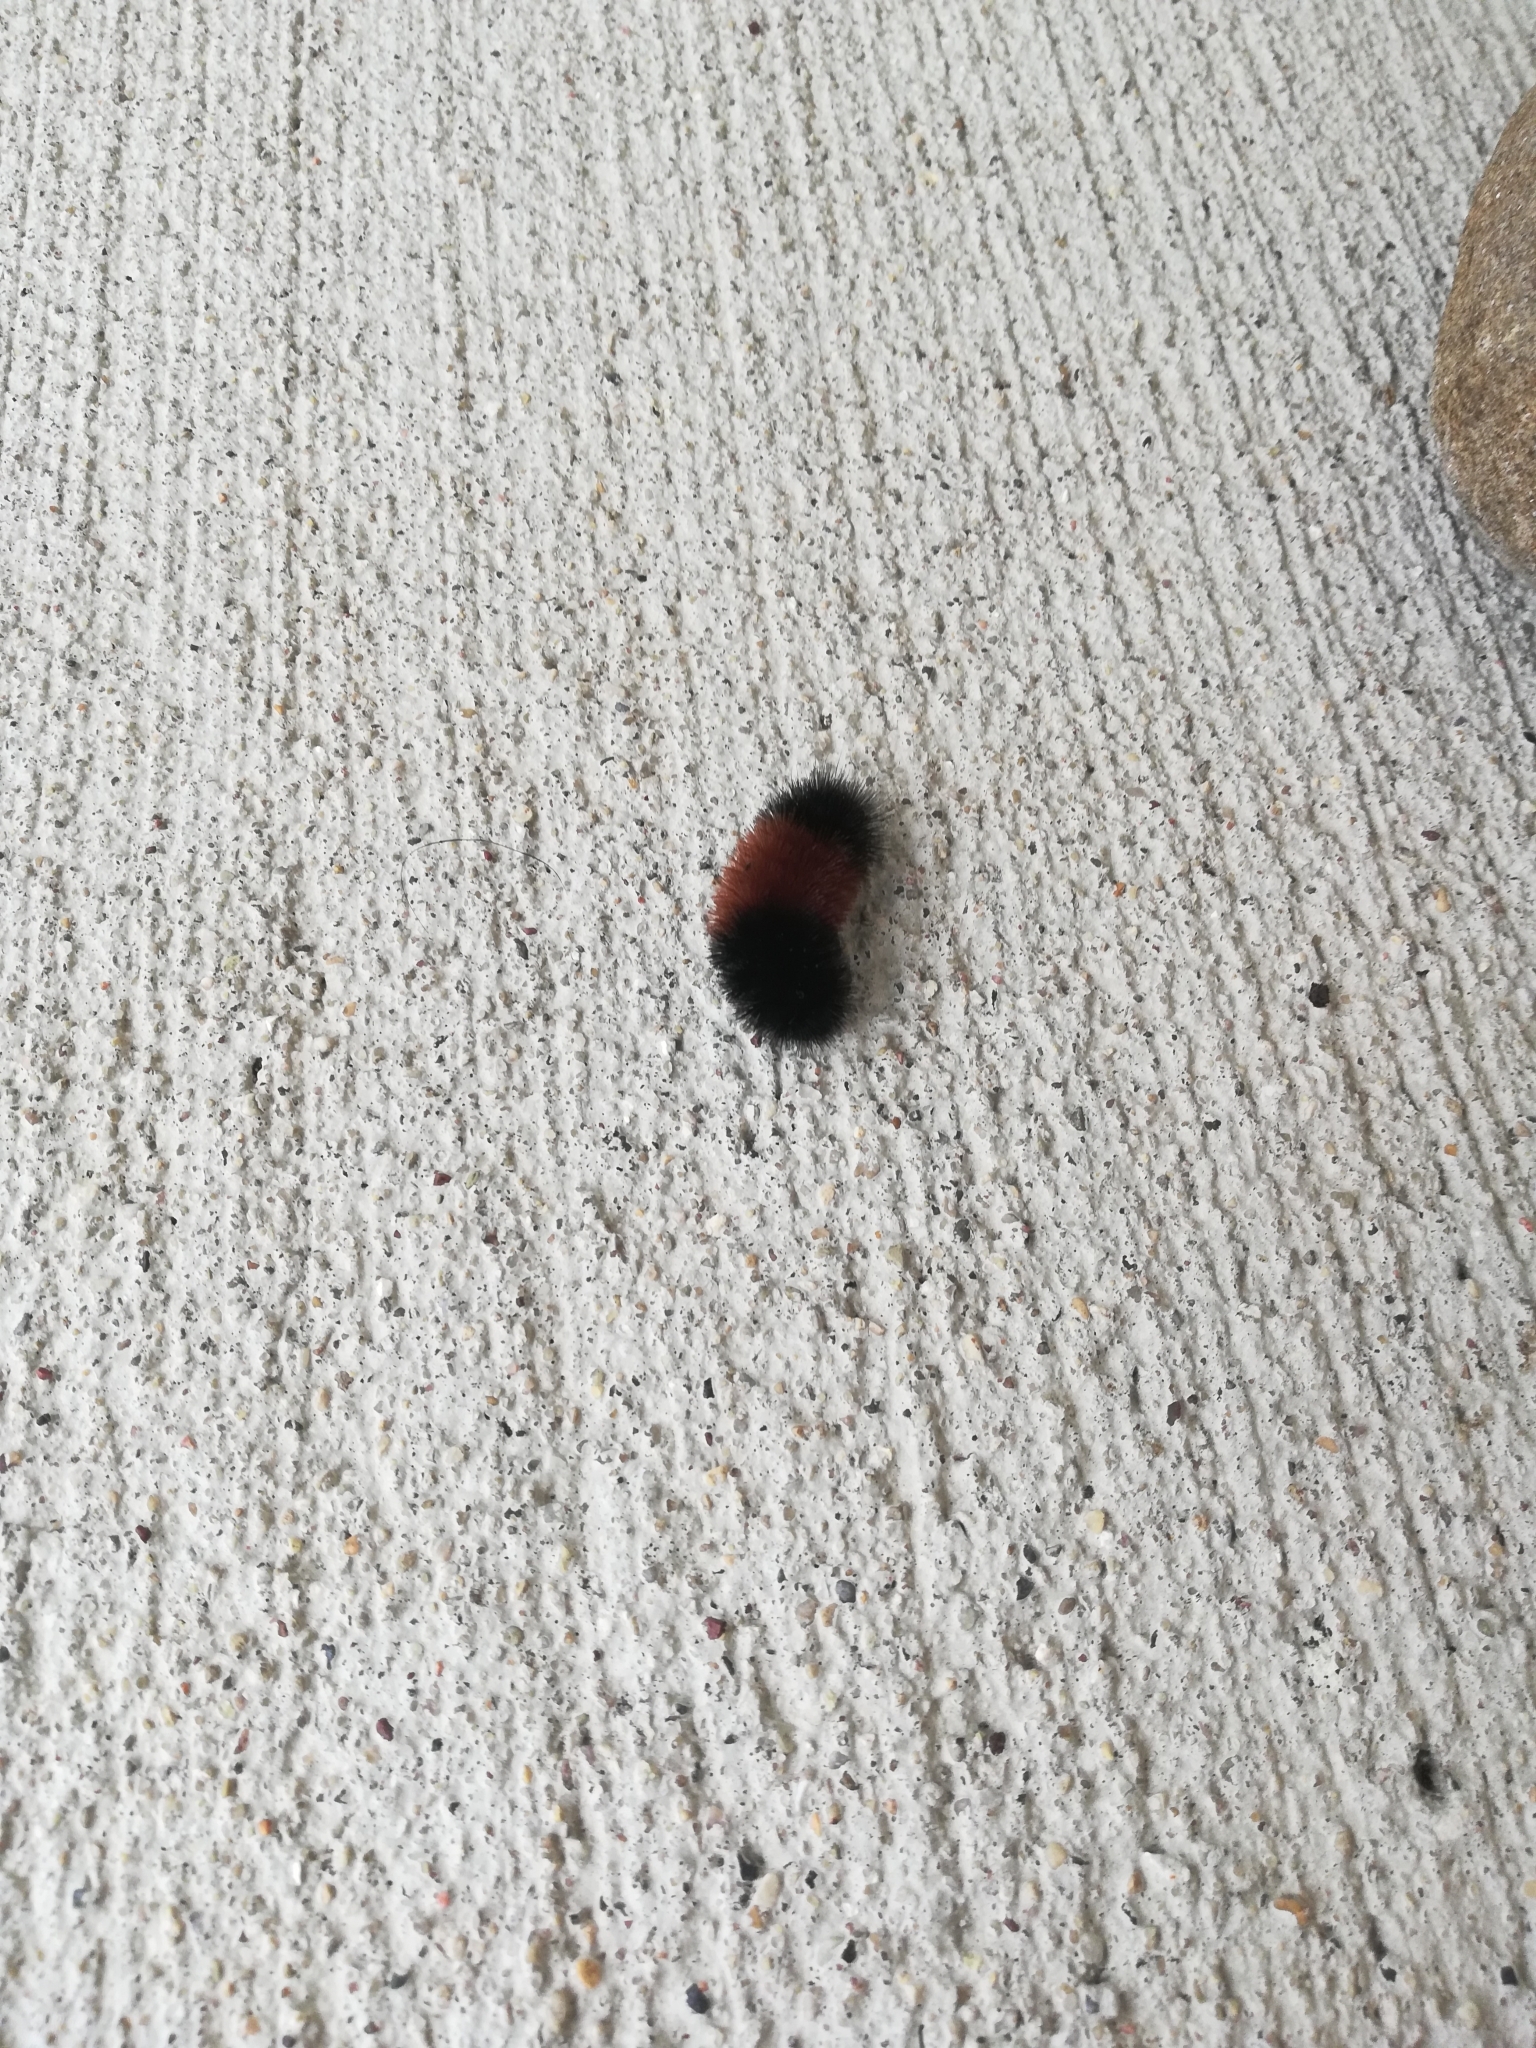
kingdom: Animalia
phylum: Arthropoda
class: Insecta
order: Lepidoptera
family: Erebidae
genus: Pyrrharctia
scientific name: Pyrrharctia isabella
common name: Isabella tiger moth
